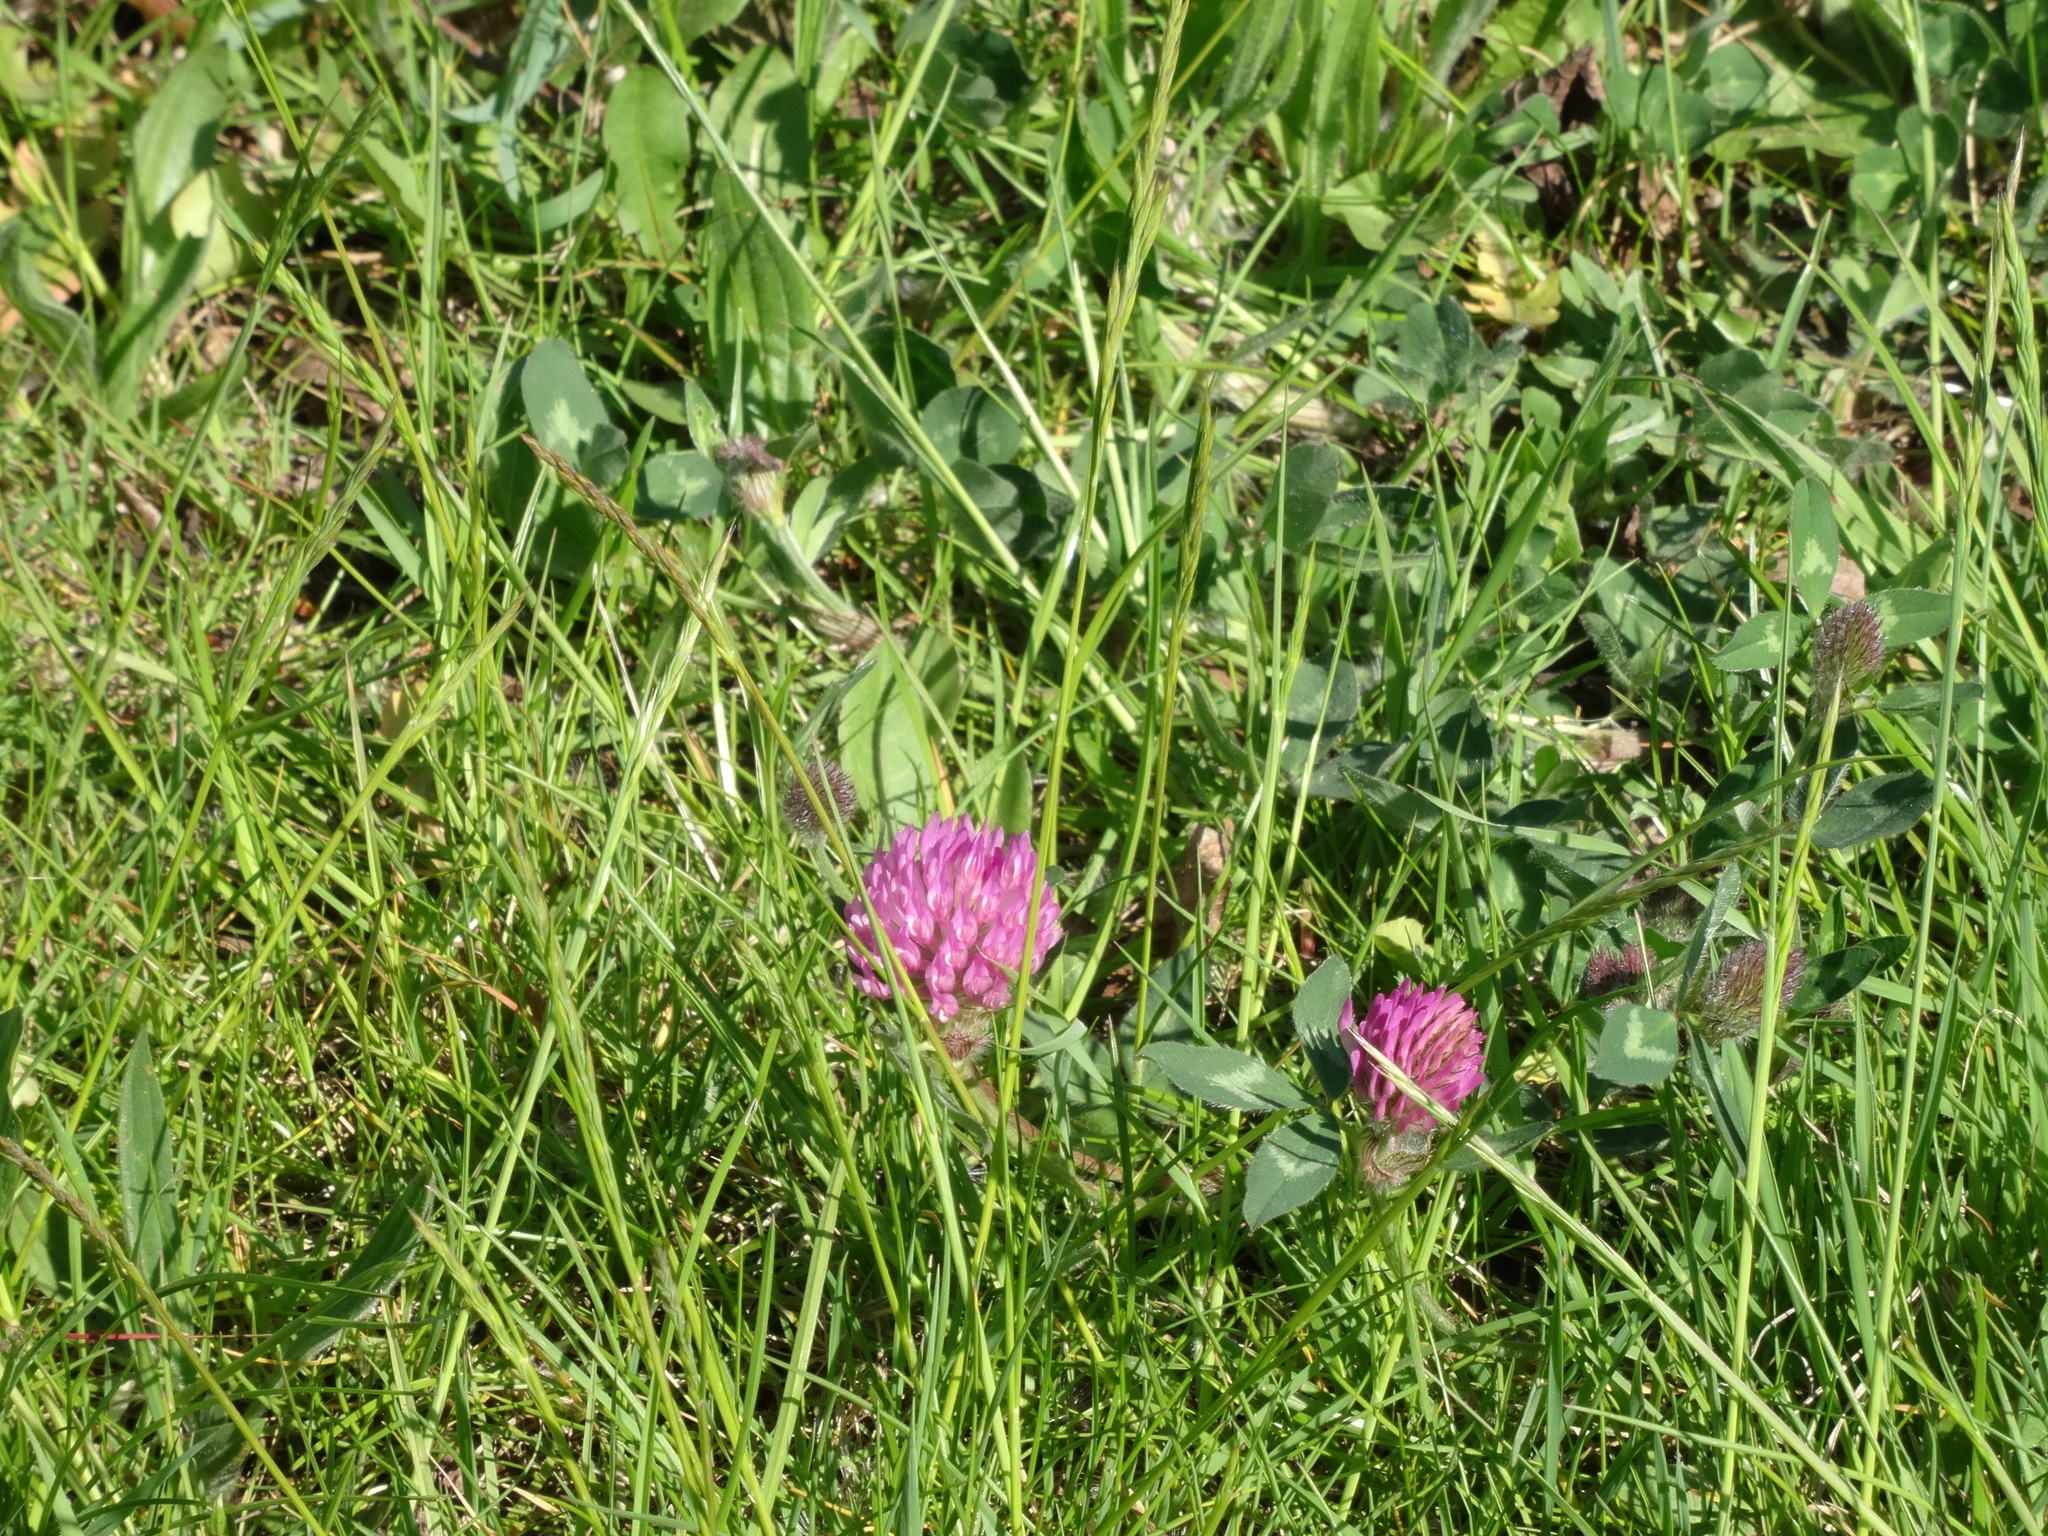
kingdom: Plantae
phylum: Tracheophyta
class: Magnoliopsida
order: Fabales
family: Fabaceae
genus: Trifolium
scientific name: Trifolium pratense
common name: Red clover
